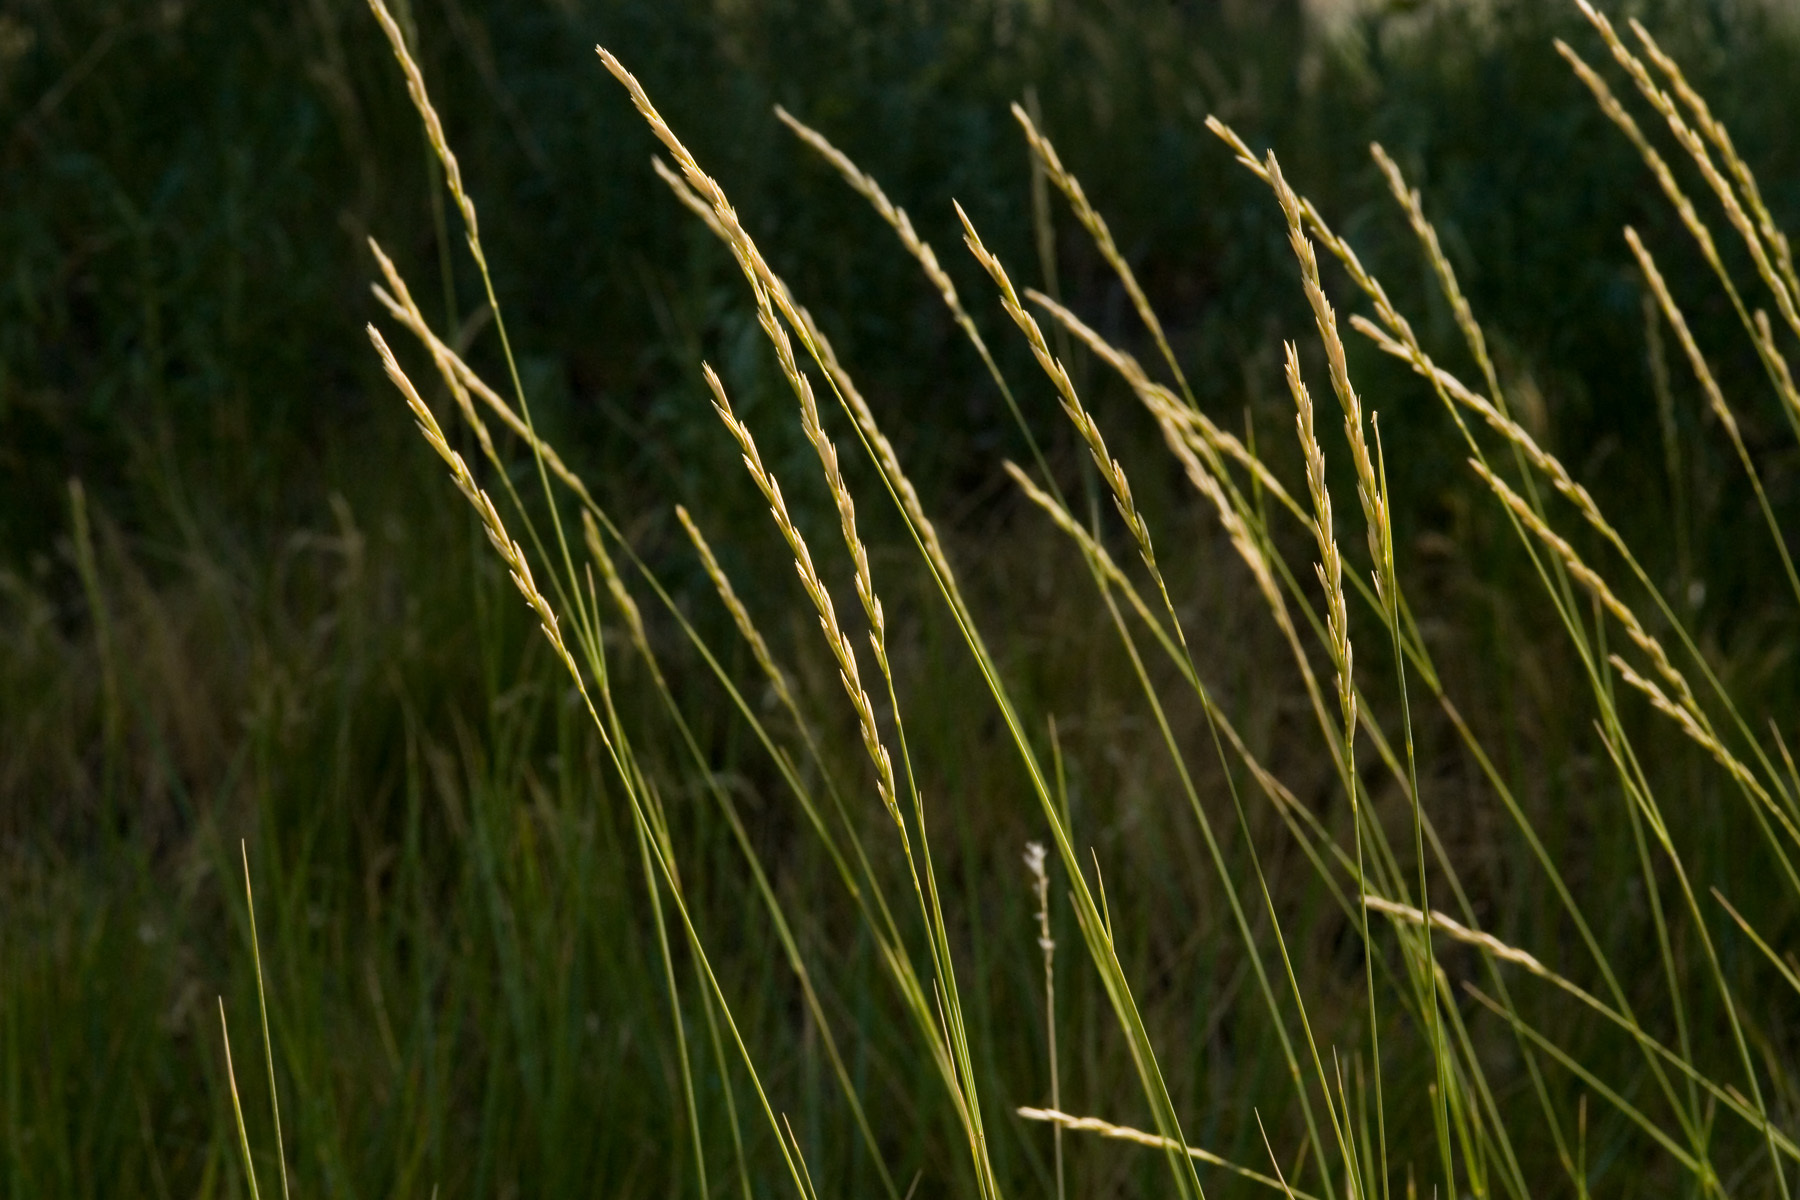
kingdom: Plantae
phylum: Tracheophyta
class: Liliopsida
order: Poales
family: Poaceae
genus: Elymus
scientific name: Elymus smithii
